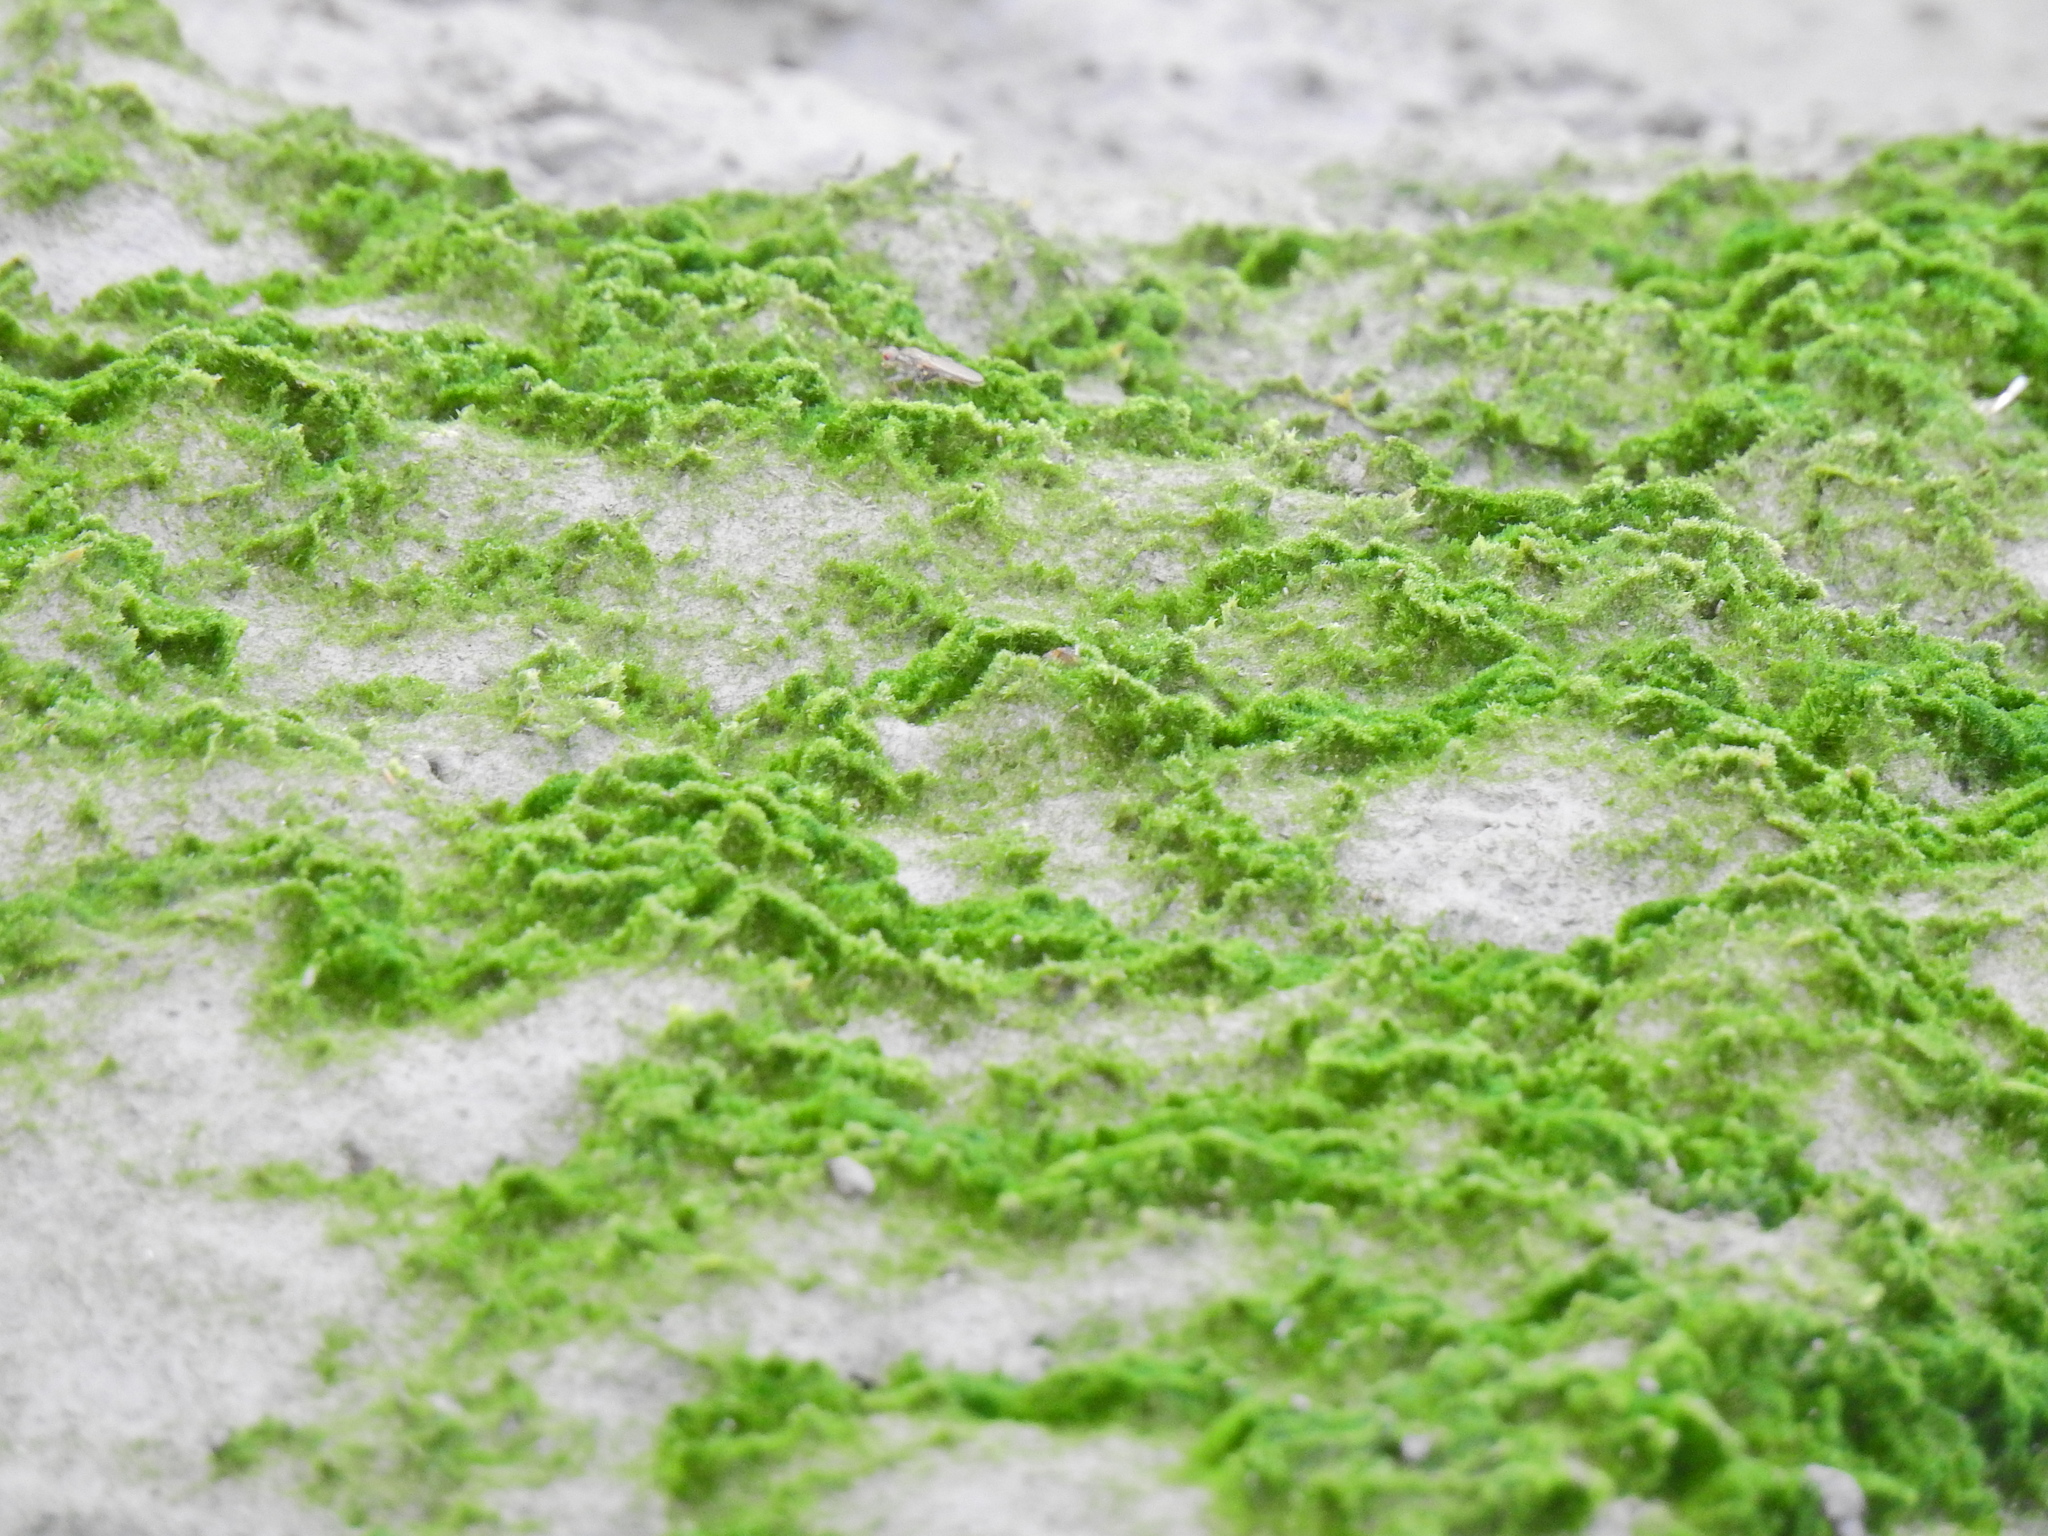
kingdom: Plantae
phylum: Chlorophyta
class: Ulvophyceae
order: Ulvales
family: Ulvaceae
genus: Ulva
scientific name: Ulva intestinalis
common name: Gut weed
